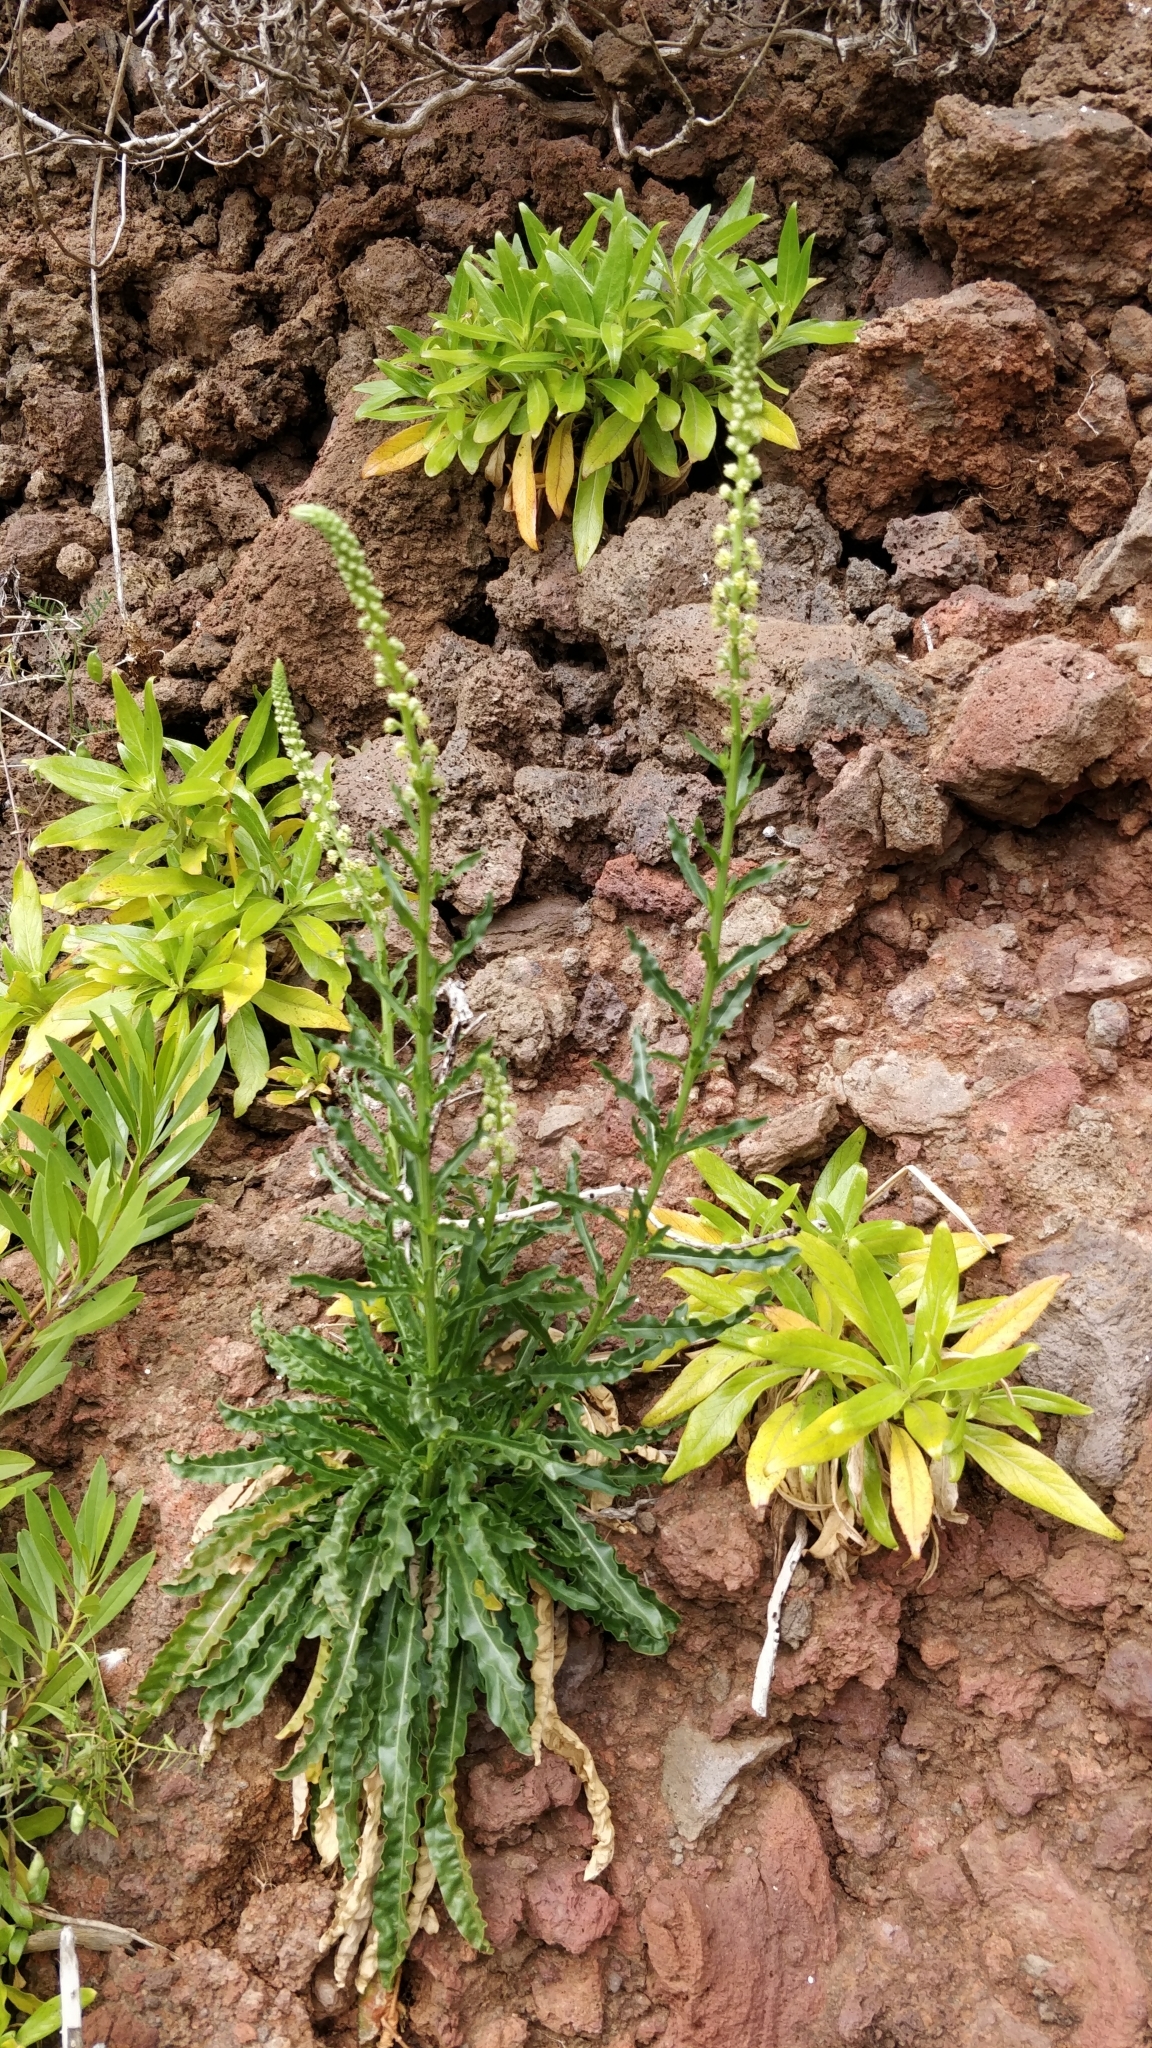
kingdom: Plantae
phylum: Tracheophyta
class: Magnoliopsida
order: Brassicales
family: Resedaceae
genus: Reseda
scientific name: Reseda luteola
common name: Weld
